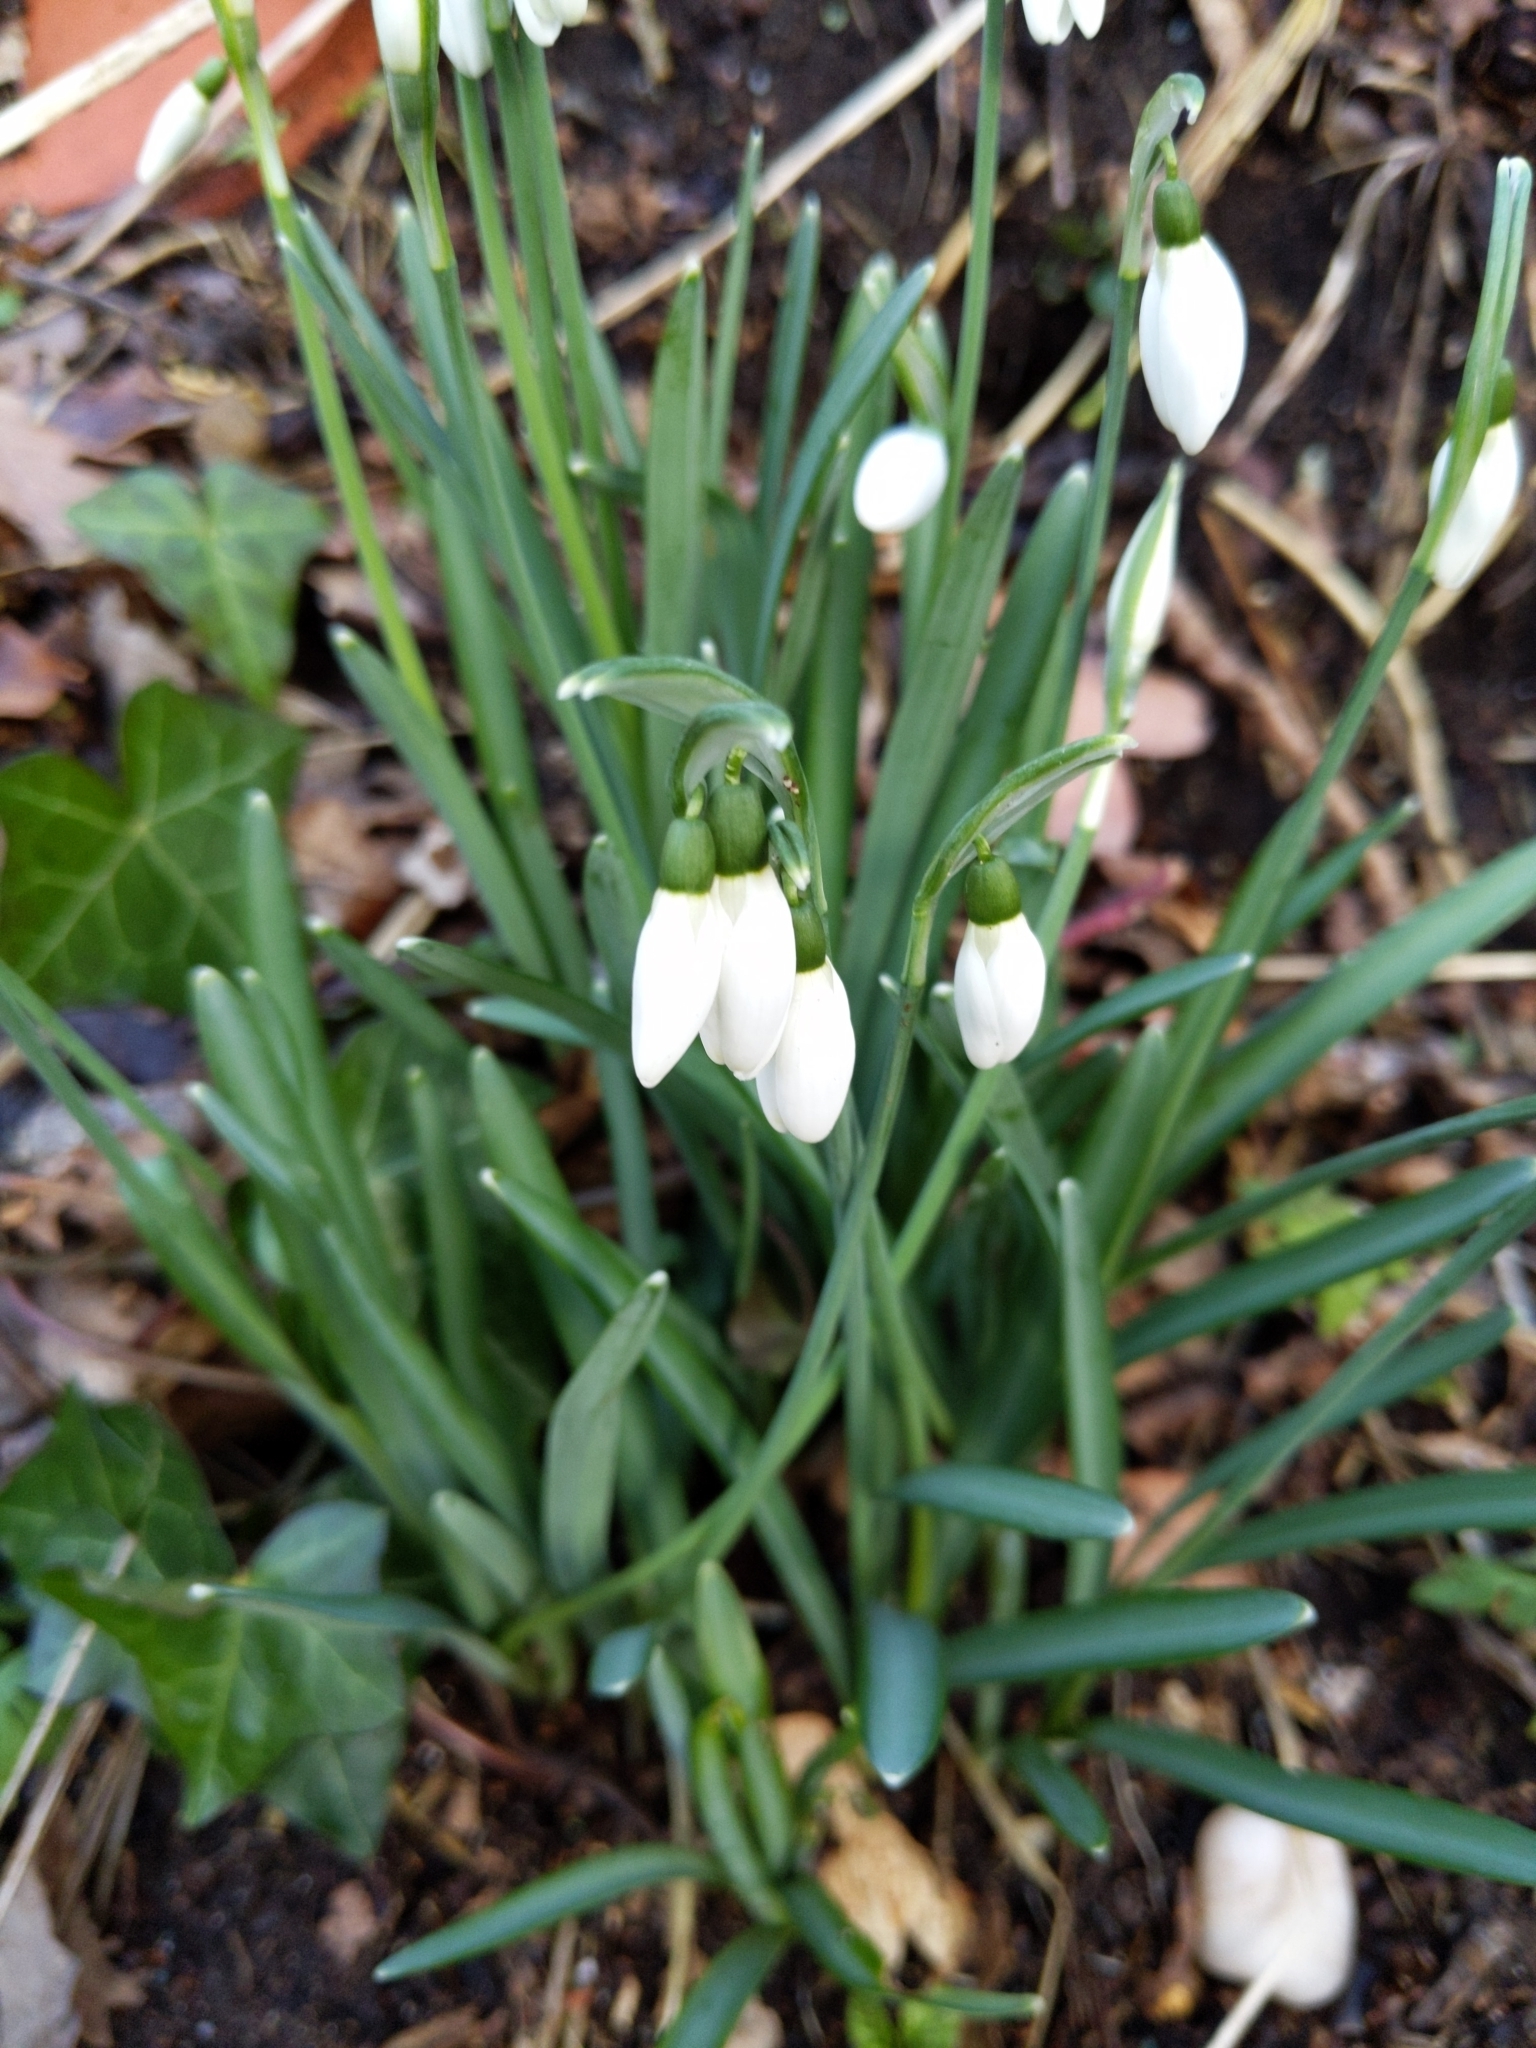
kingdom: Plantae
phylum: Tracheophyta
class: Liliopsida
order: Asparagales
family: Amaryllidaceae
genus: Galanthus
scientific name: Galanthus nivalis
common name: Snowdrop
